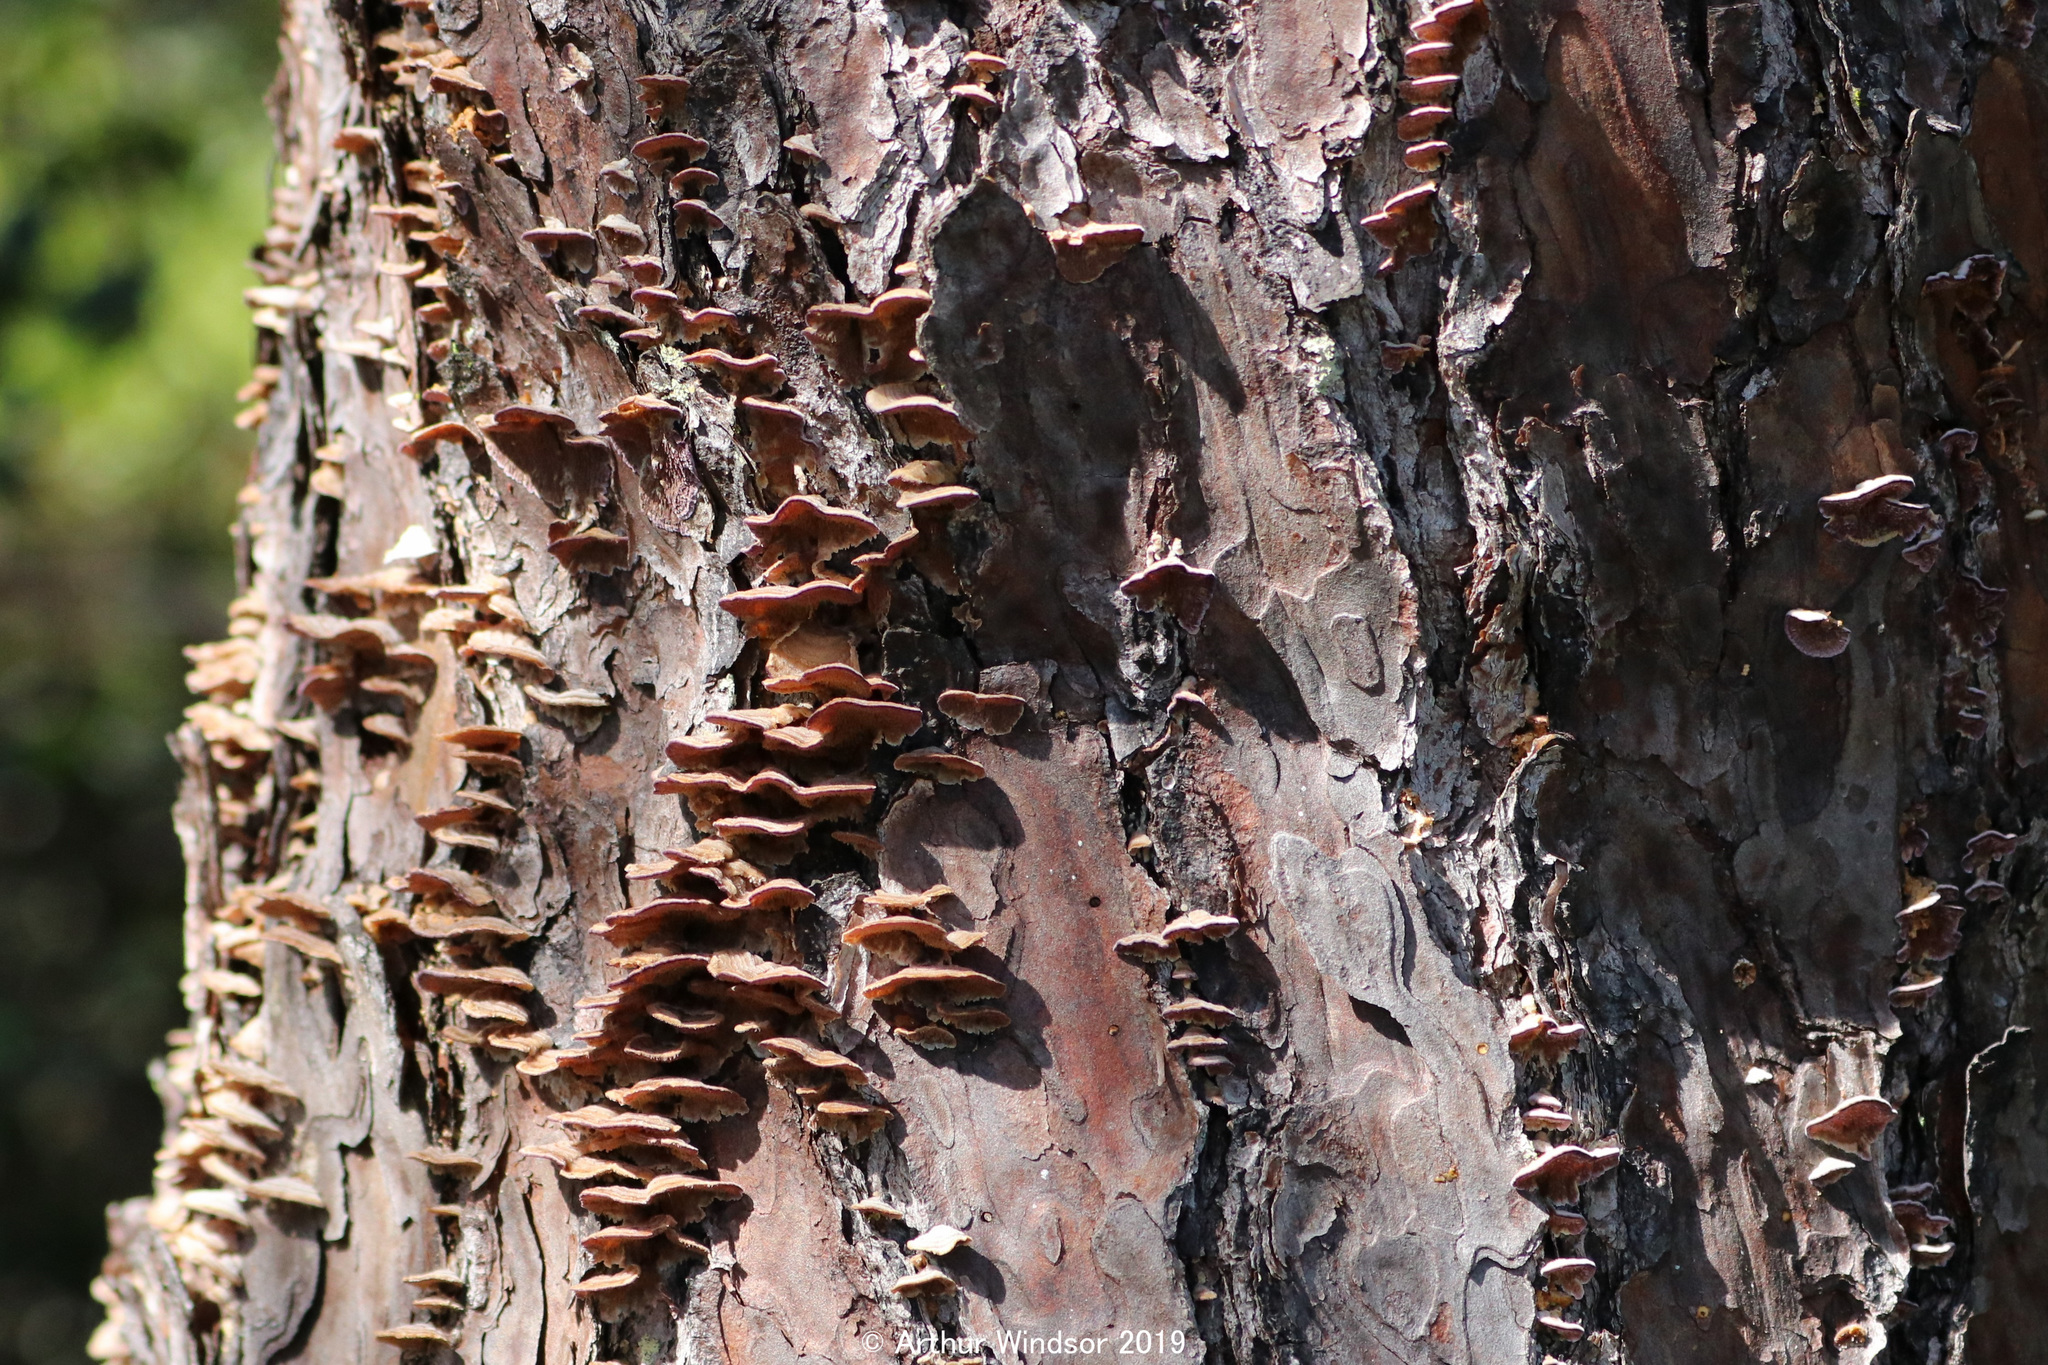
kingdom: Fungi
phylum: Basidiomycota
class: Agaricomycetes
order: Hymenochaetales
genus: Trichaptum
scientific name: Trichaptum abietinum
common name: Purplepore bracket
